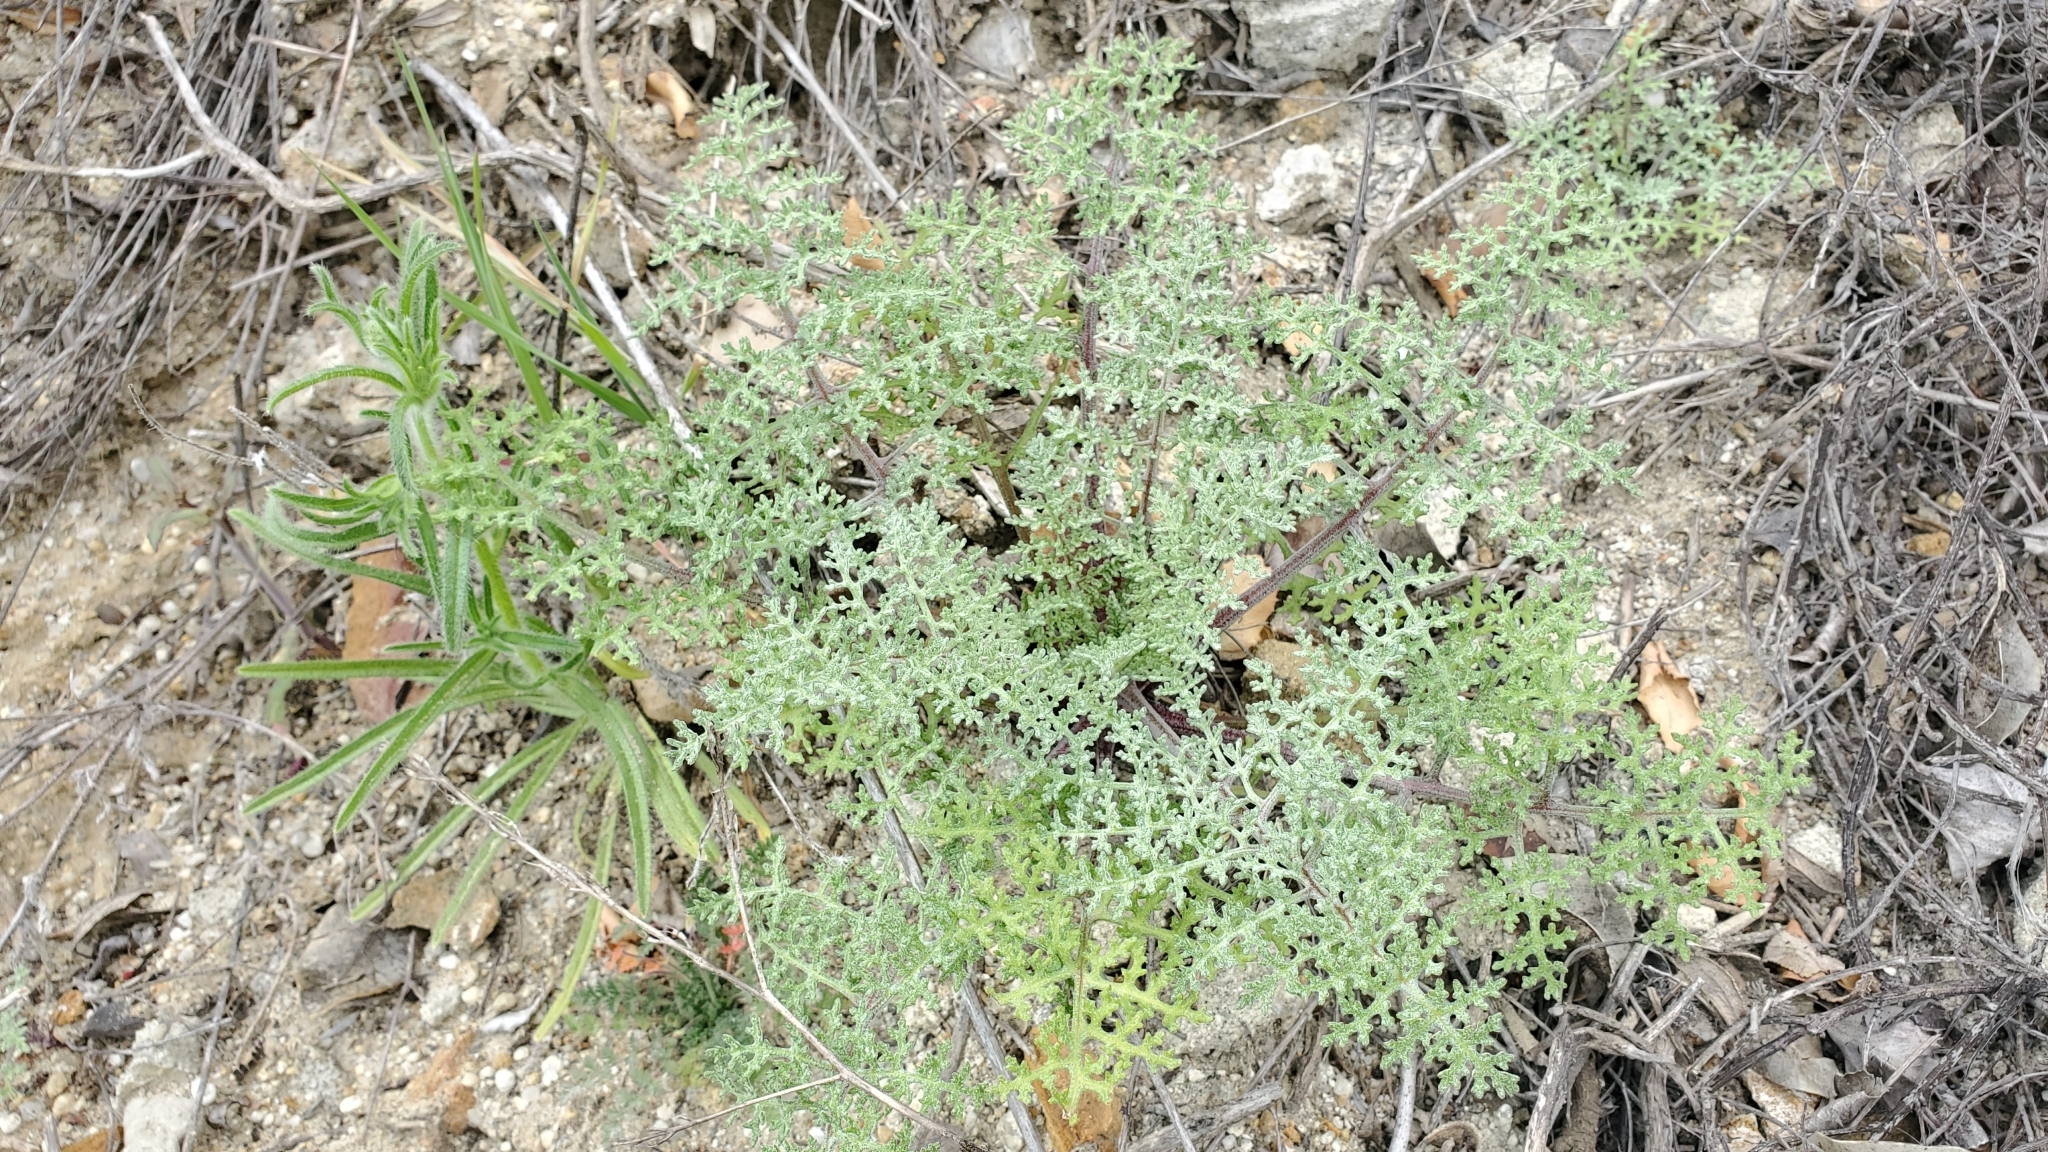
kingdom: Plantae
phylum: Tracheophyta
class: Magnoliopsida
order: Asterales
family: Asteraceae
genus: Chaenactis
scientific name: Chaenactis artemisiifolia
